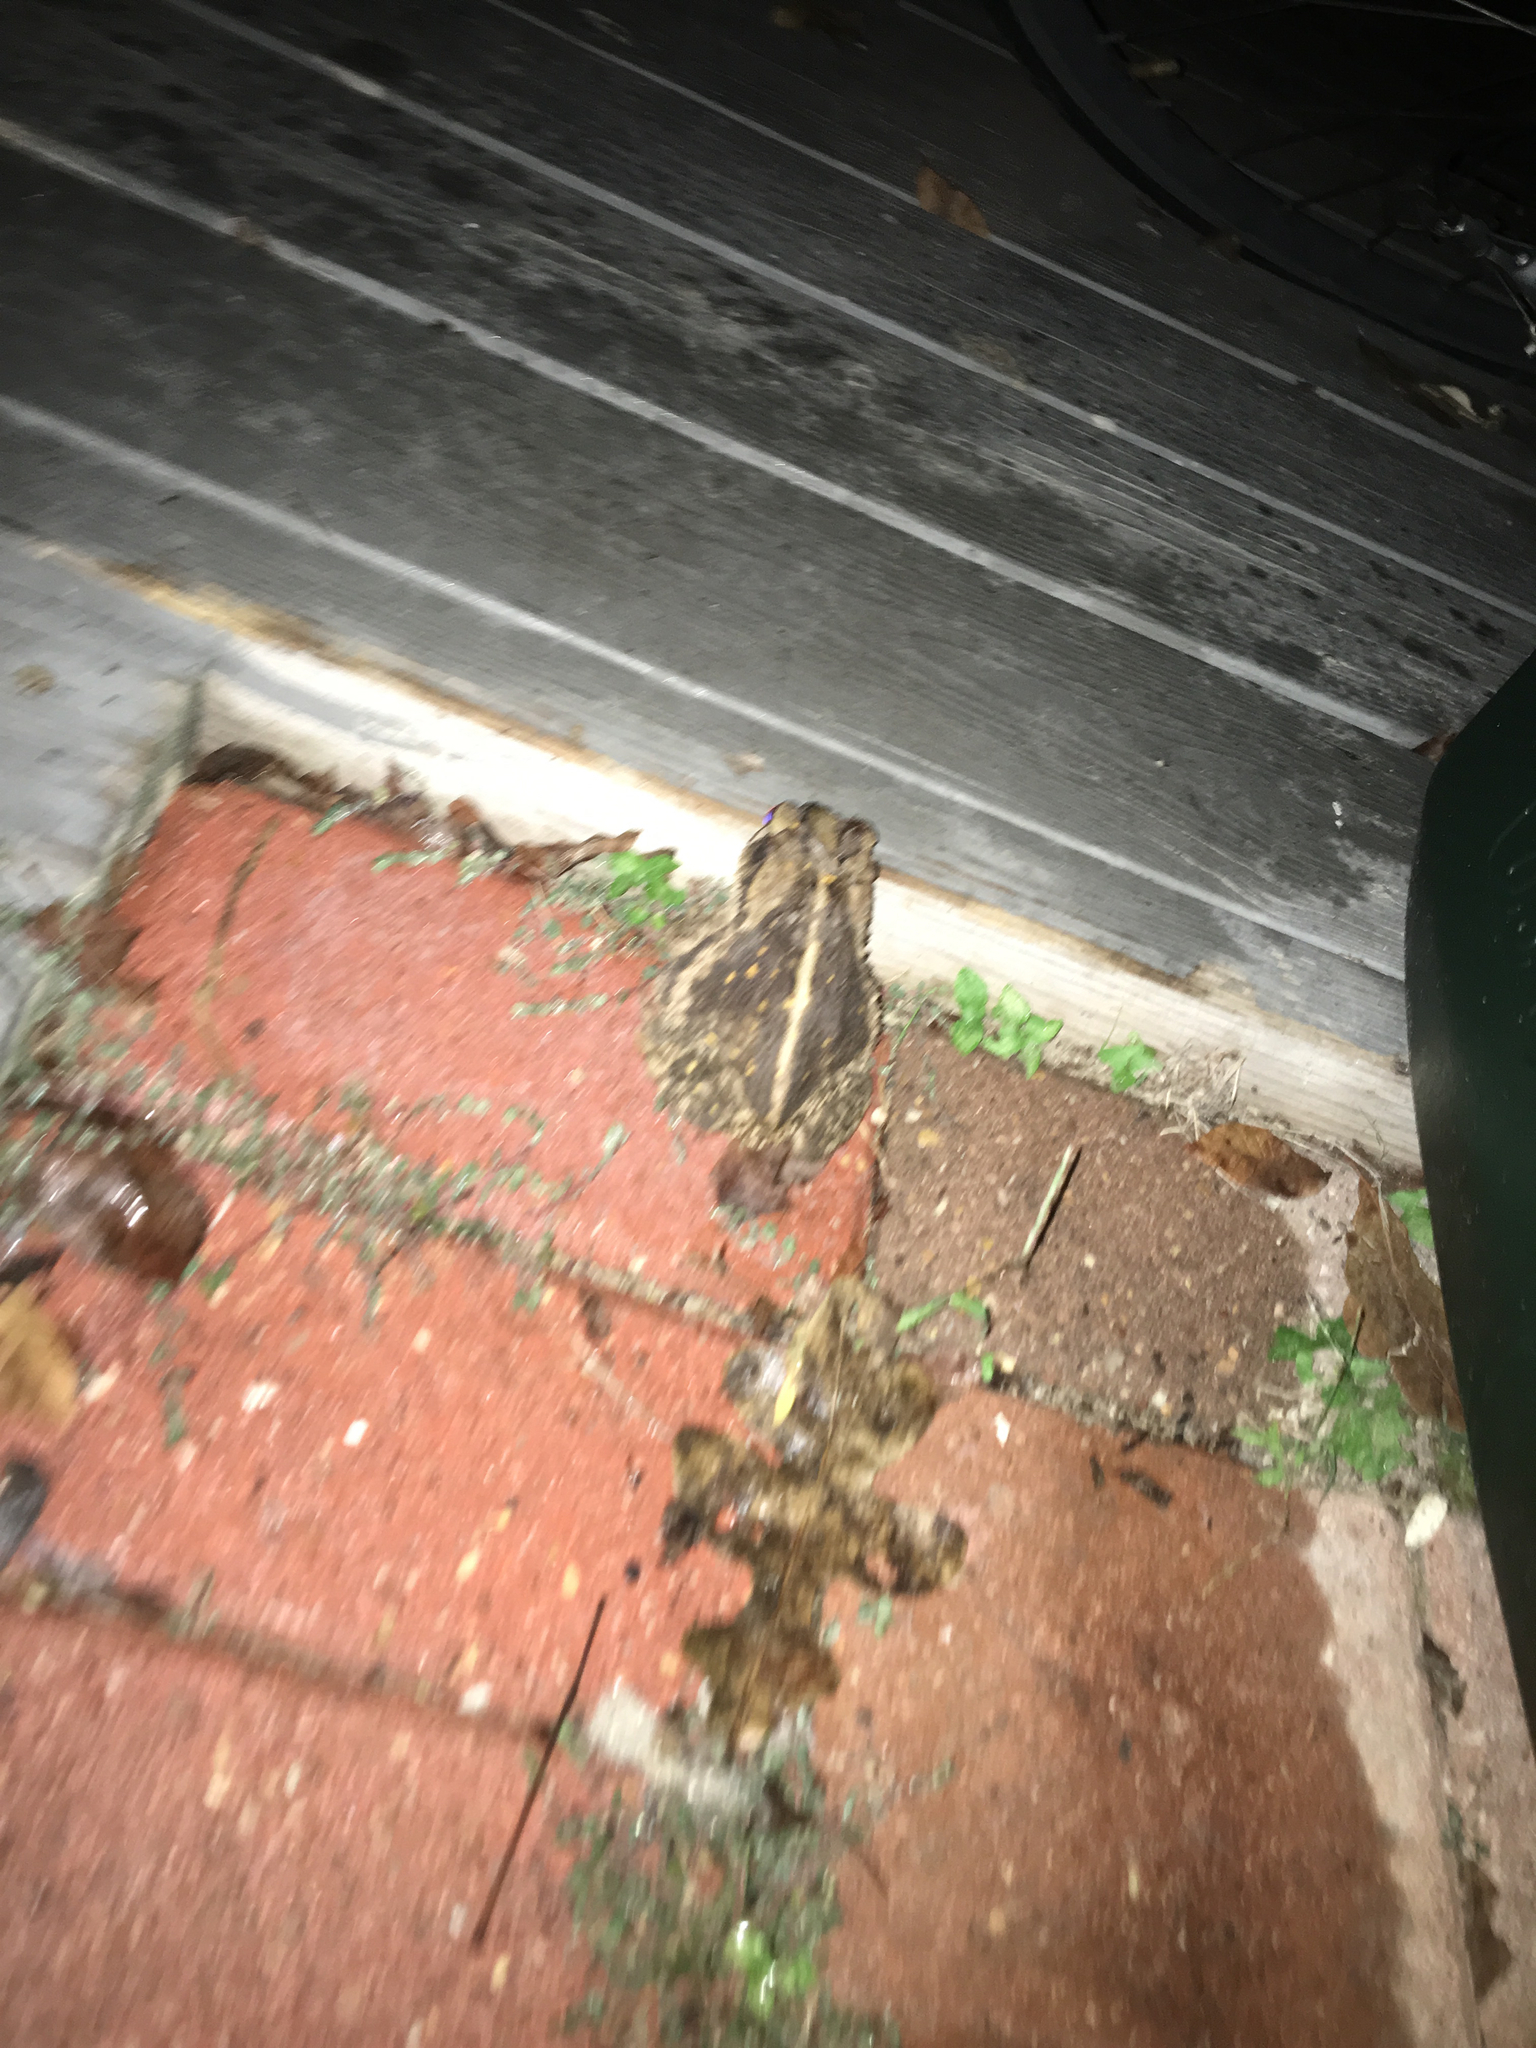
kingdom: Animalia
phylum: Chordata
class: Amphibia
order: Anura
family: Bufonidae
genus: Incilius
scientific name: Incilius nebulifer
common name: Gulf coast toad
